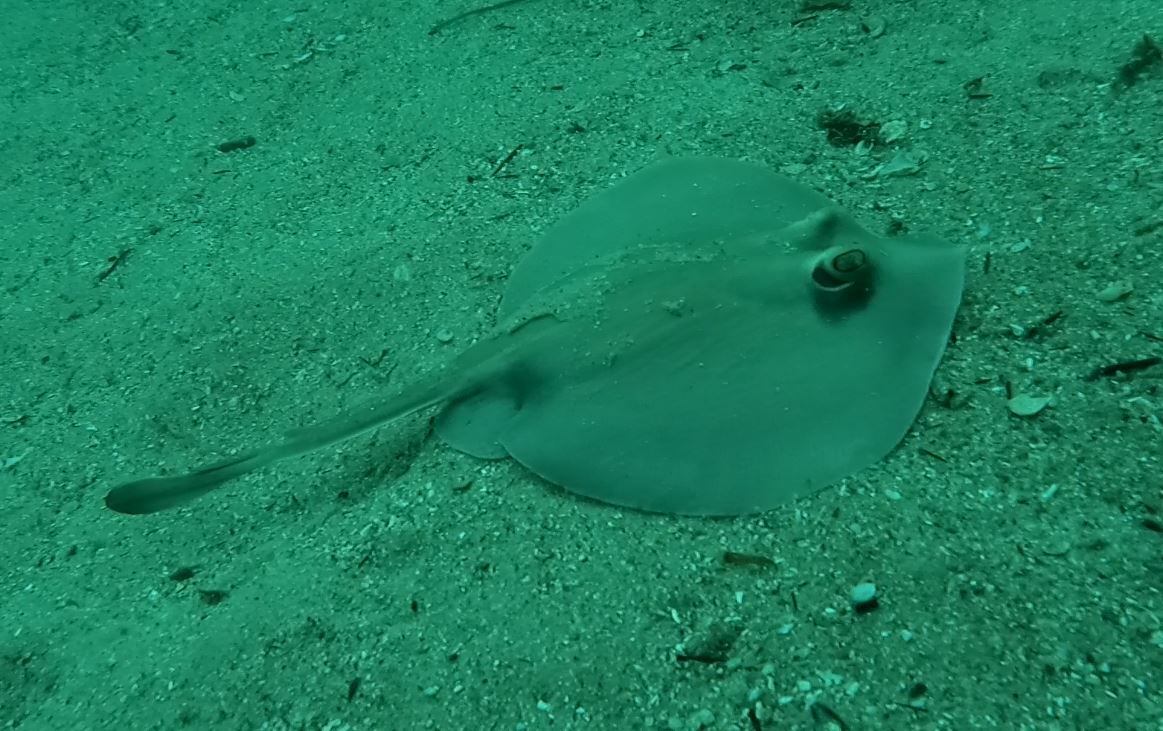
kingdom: Animalia
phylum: Chordata
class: Elasmobranchii
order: Myliobatiformes
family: Urolophidae
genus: Urolophus
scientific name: Urolophus kapalensis
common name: Kapala stingaree
